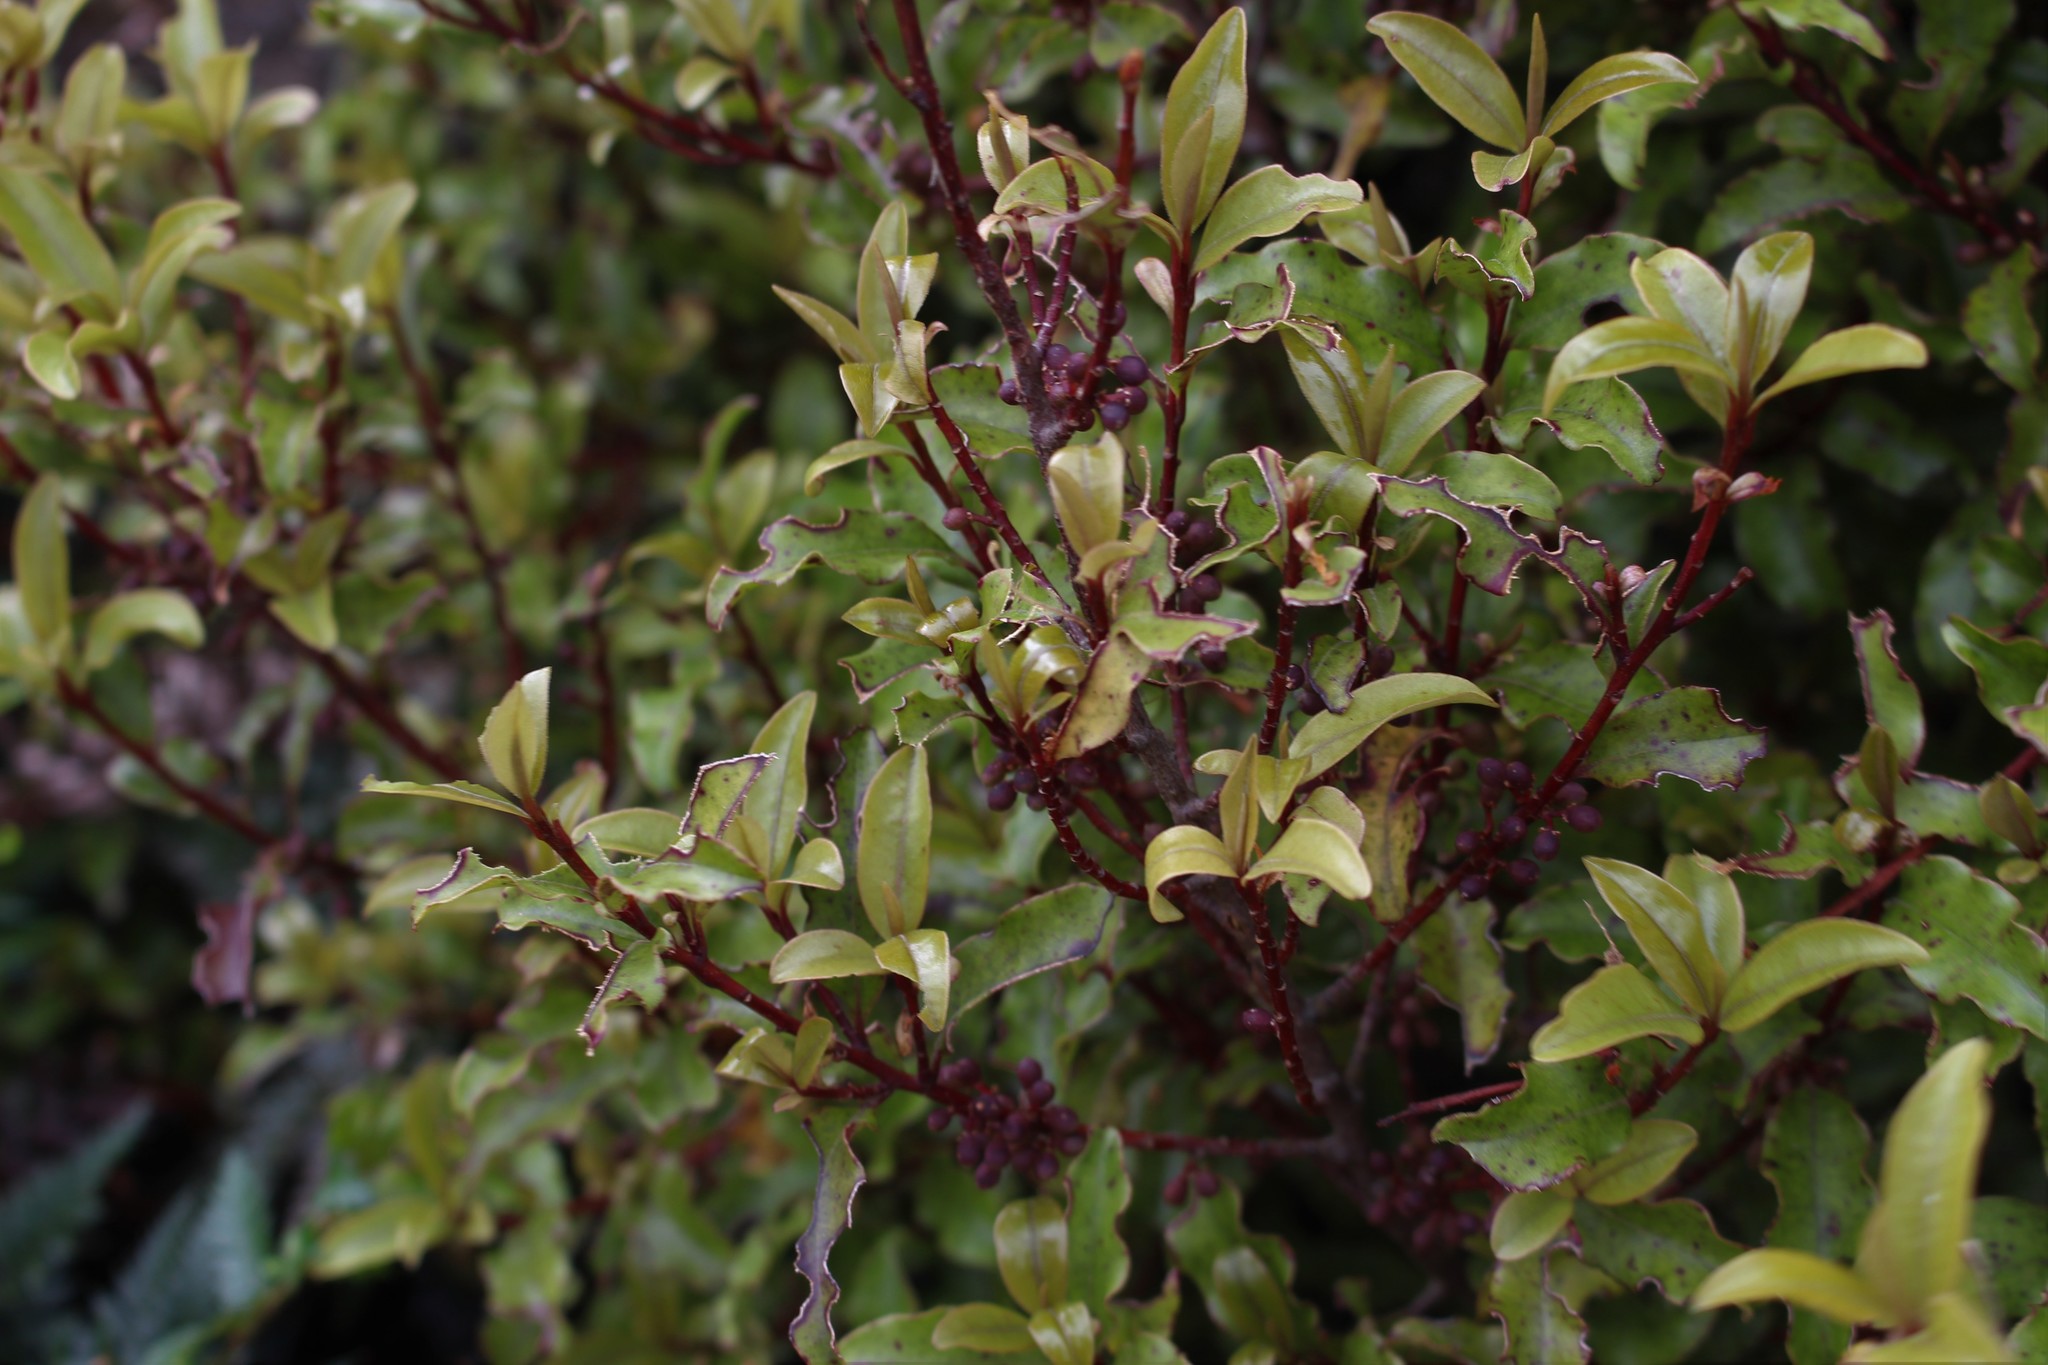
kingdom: Plantae
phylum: Tracheophyta
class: Magnoliopsida
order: Ericales
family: Primulaceae
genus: Myrsine
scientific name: Myrsine australis
